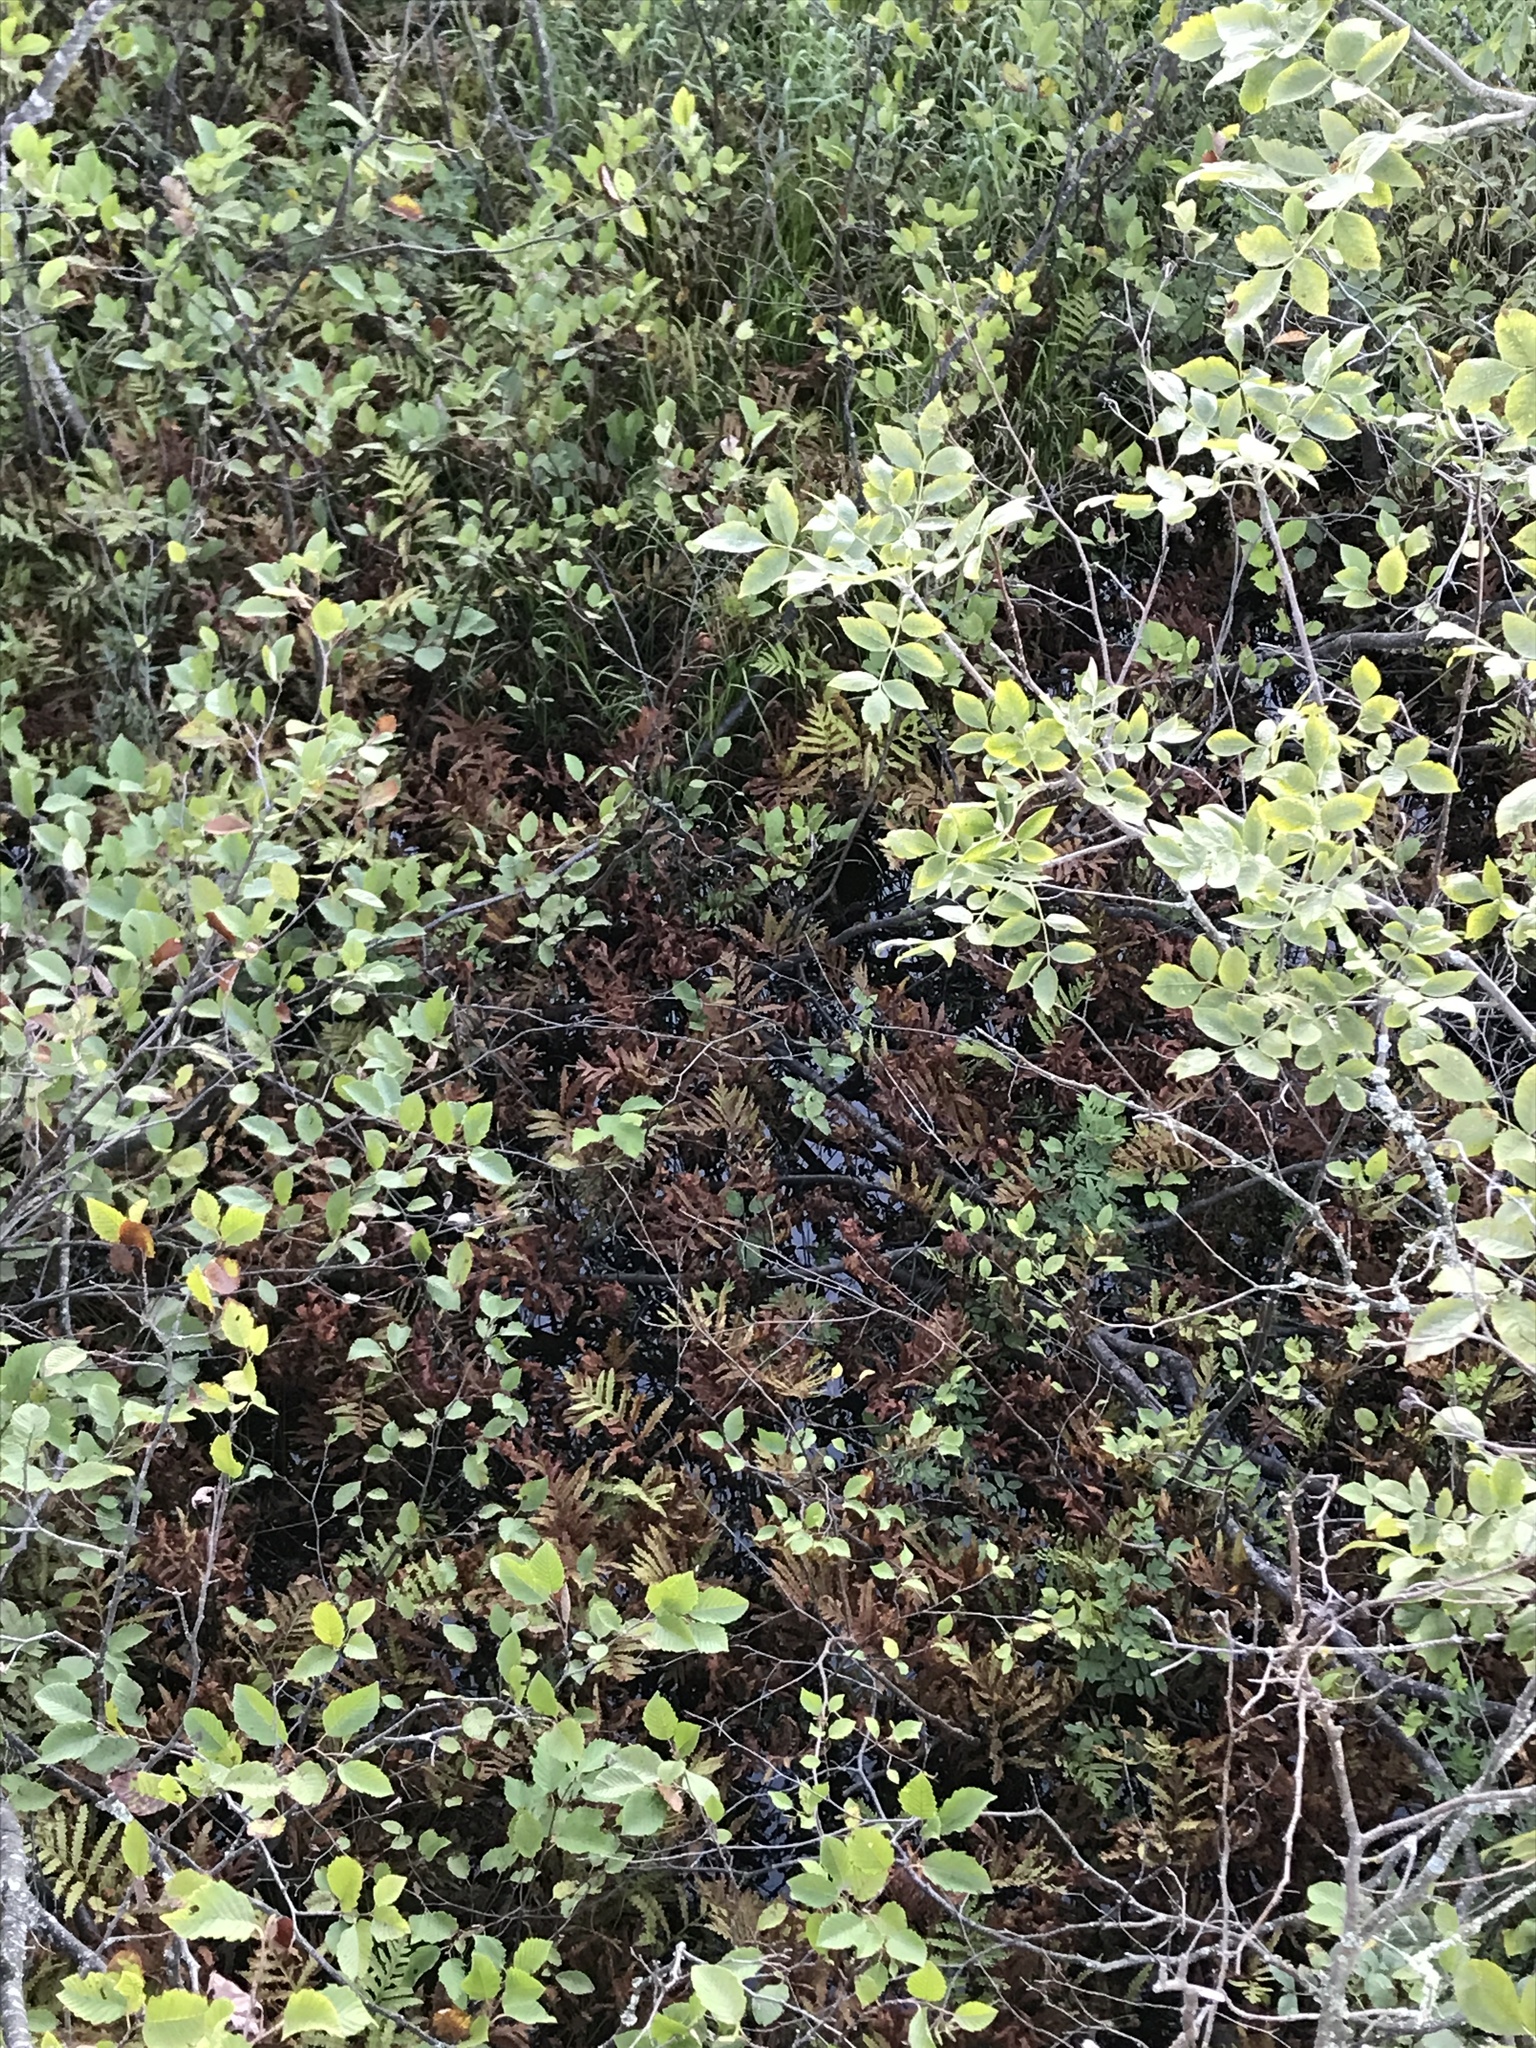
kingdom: Plantae
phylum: Tracheophyta
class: Polypodiopsida
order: Polypodiales
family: Onocleaceae
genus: Onoclea
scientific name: Onoclea sensibilis
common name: Sensitive fern
